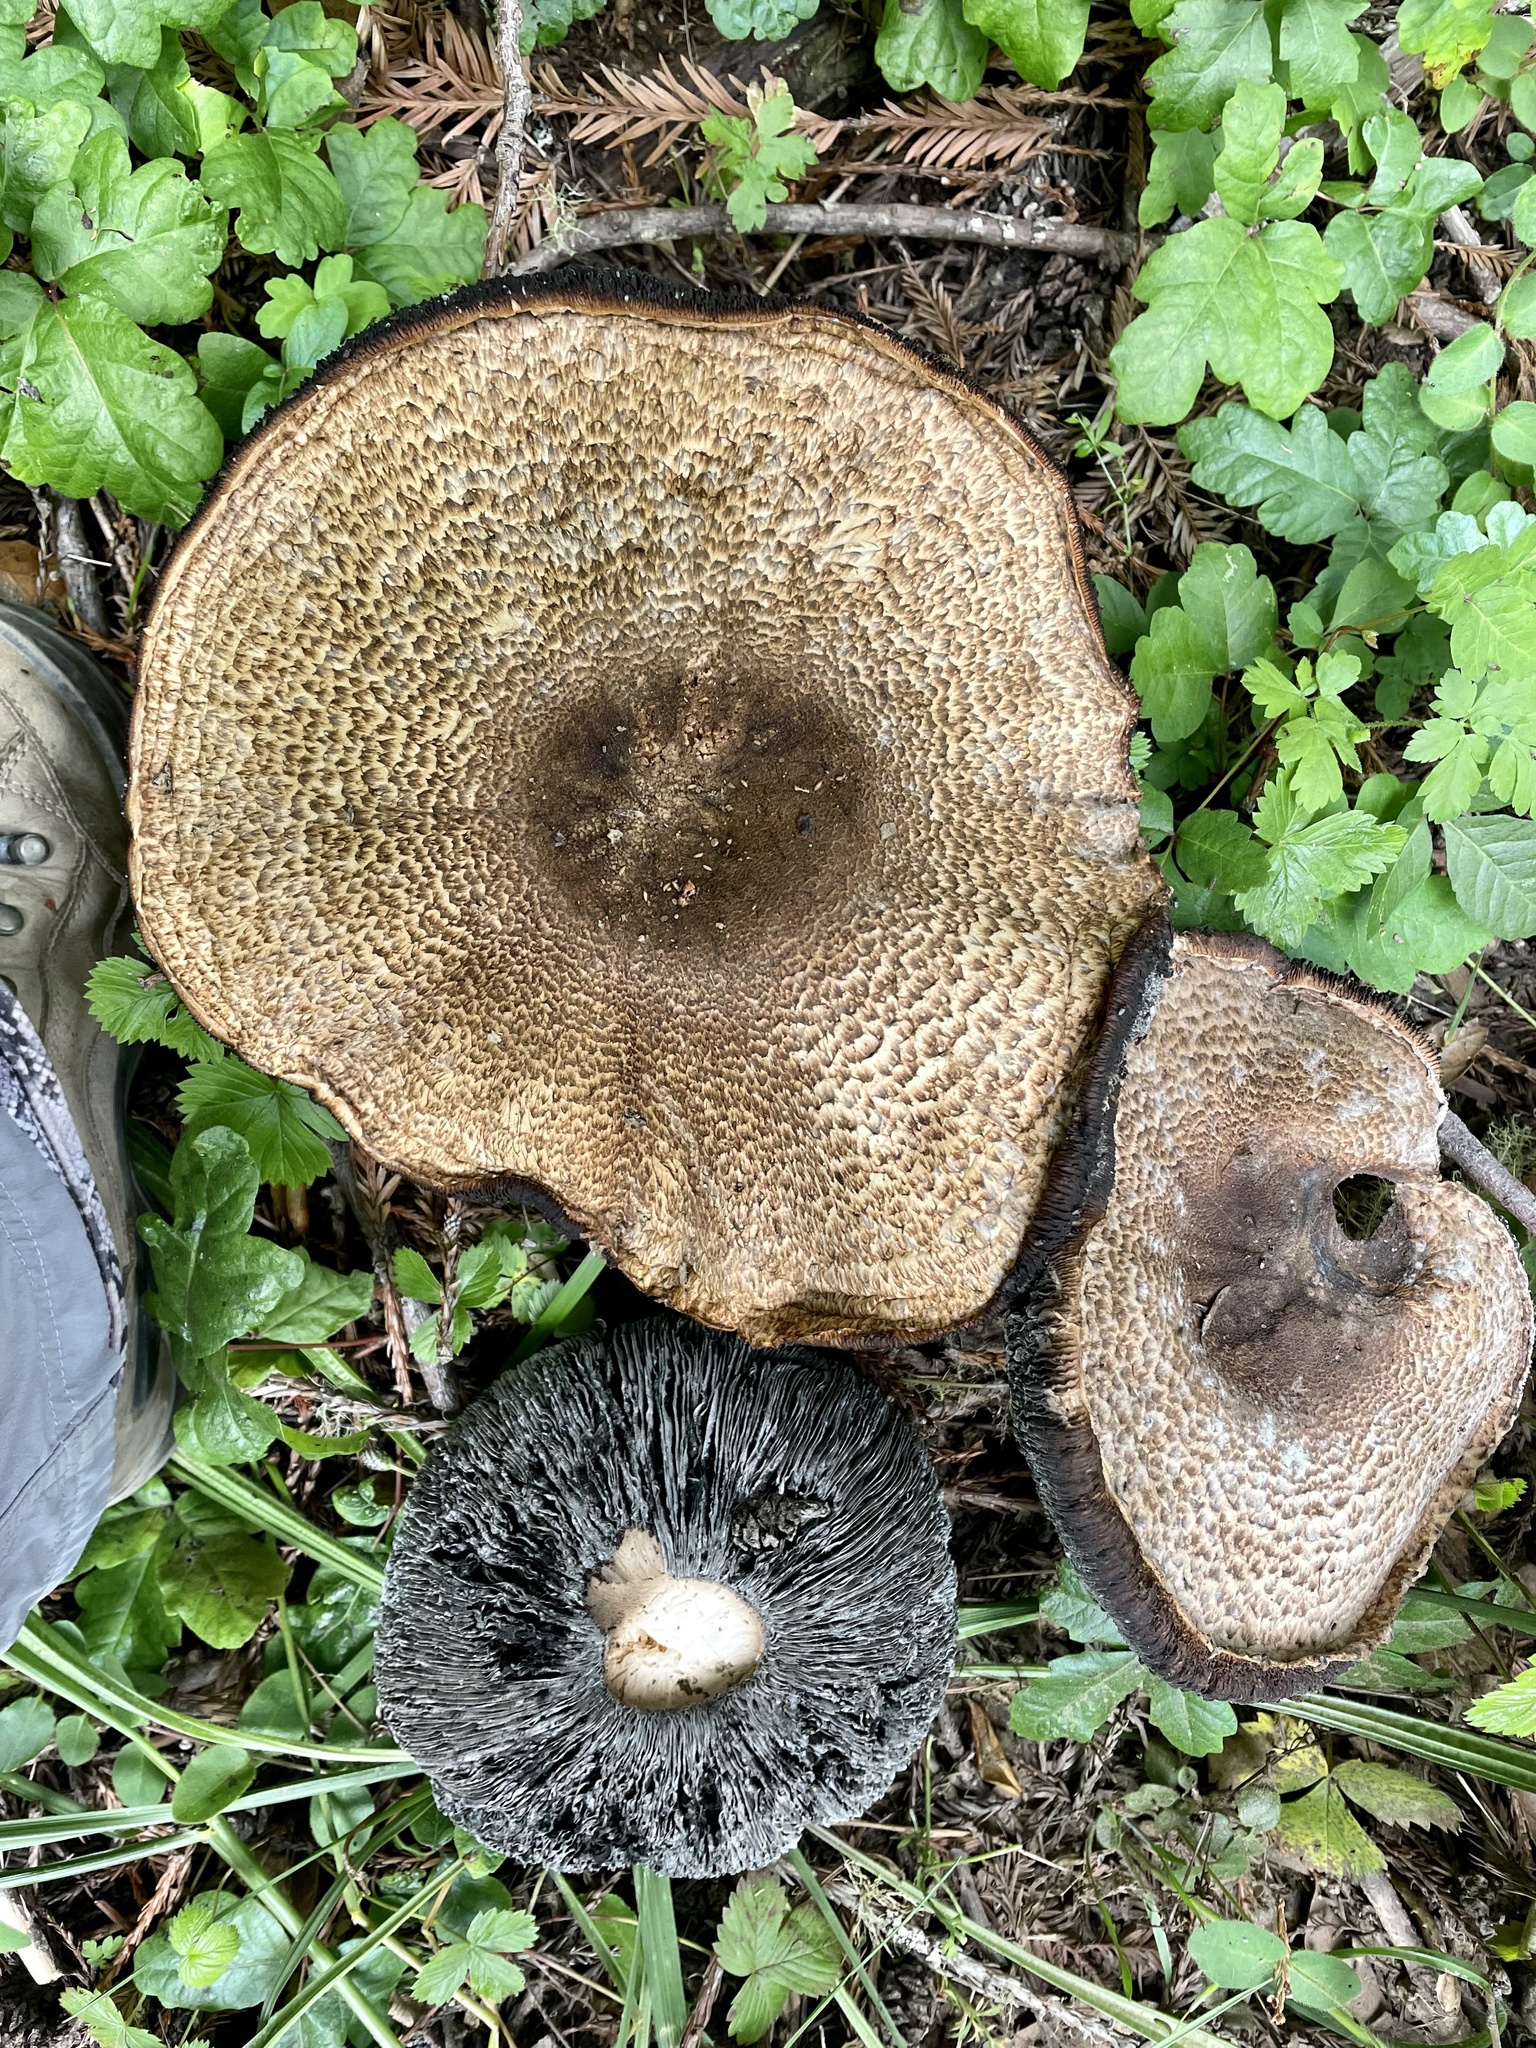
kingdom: Fungi
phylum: Basidiomycota
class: Agaricomycetes
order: Agaricales
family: Agaricaceae
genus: Agaricus
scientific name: Agaricus augustus
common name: Prince
